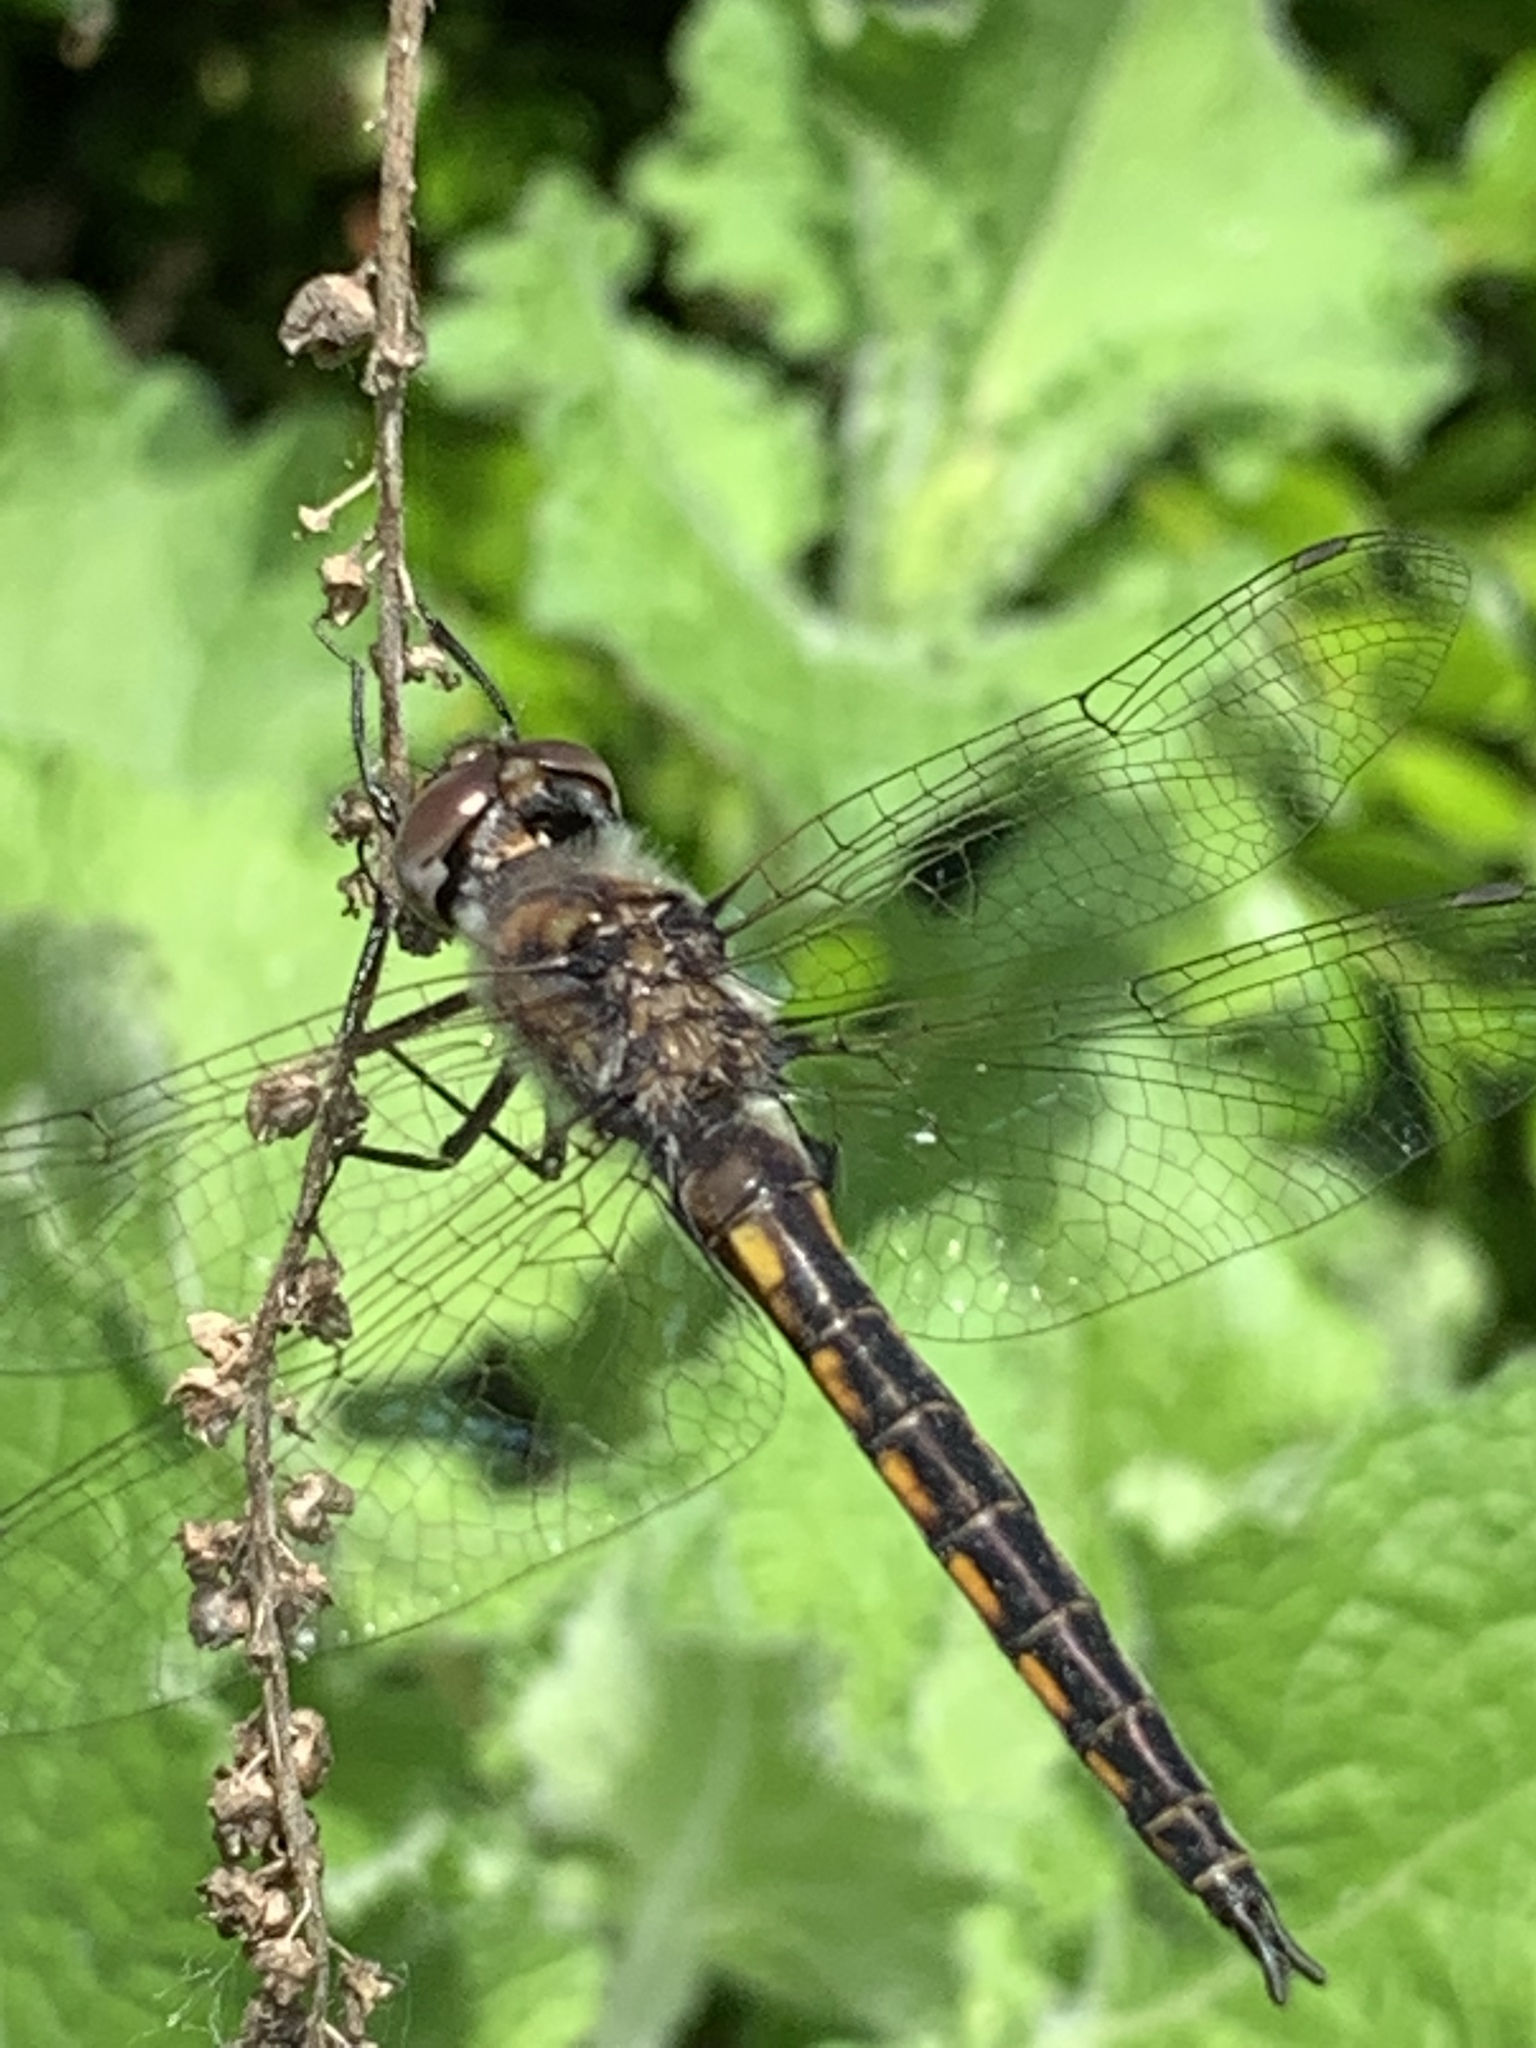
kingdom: Animalia
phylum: Arthropoda
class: Insecta
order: Odonata
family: Corduliidae
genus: Epitheca
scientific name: Epitheca cynosura
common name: Common baskettail
